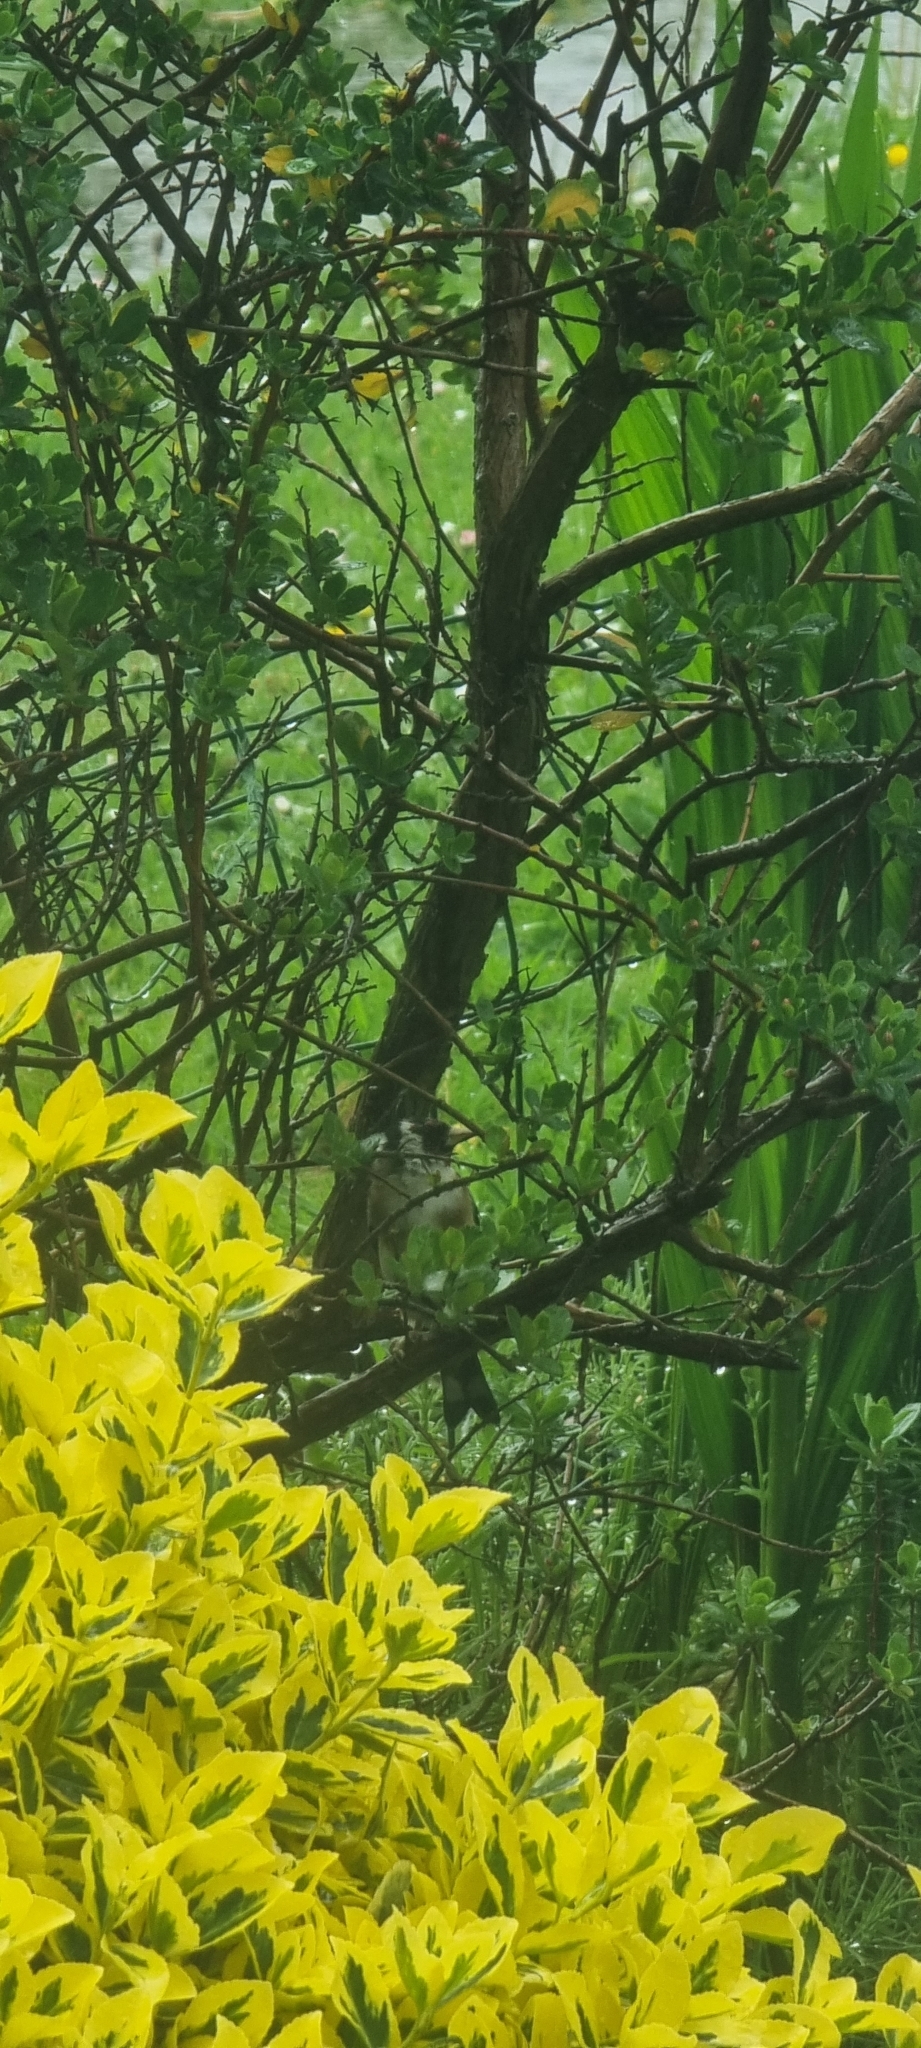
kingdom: Animalia
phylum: Chordata
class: Aves
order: Passeriformes
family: Fringillidae
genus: Carduelis
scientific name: Carduelis carduelis
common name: European goldfinch
